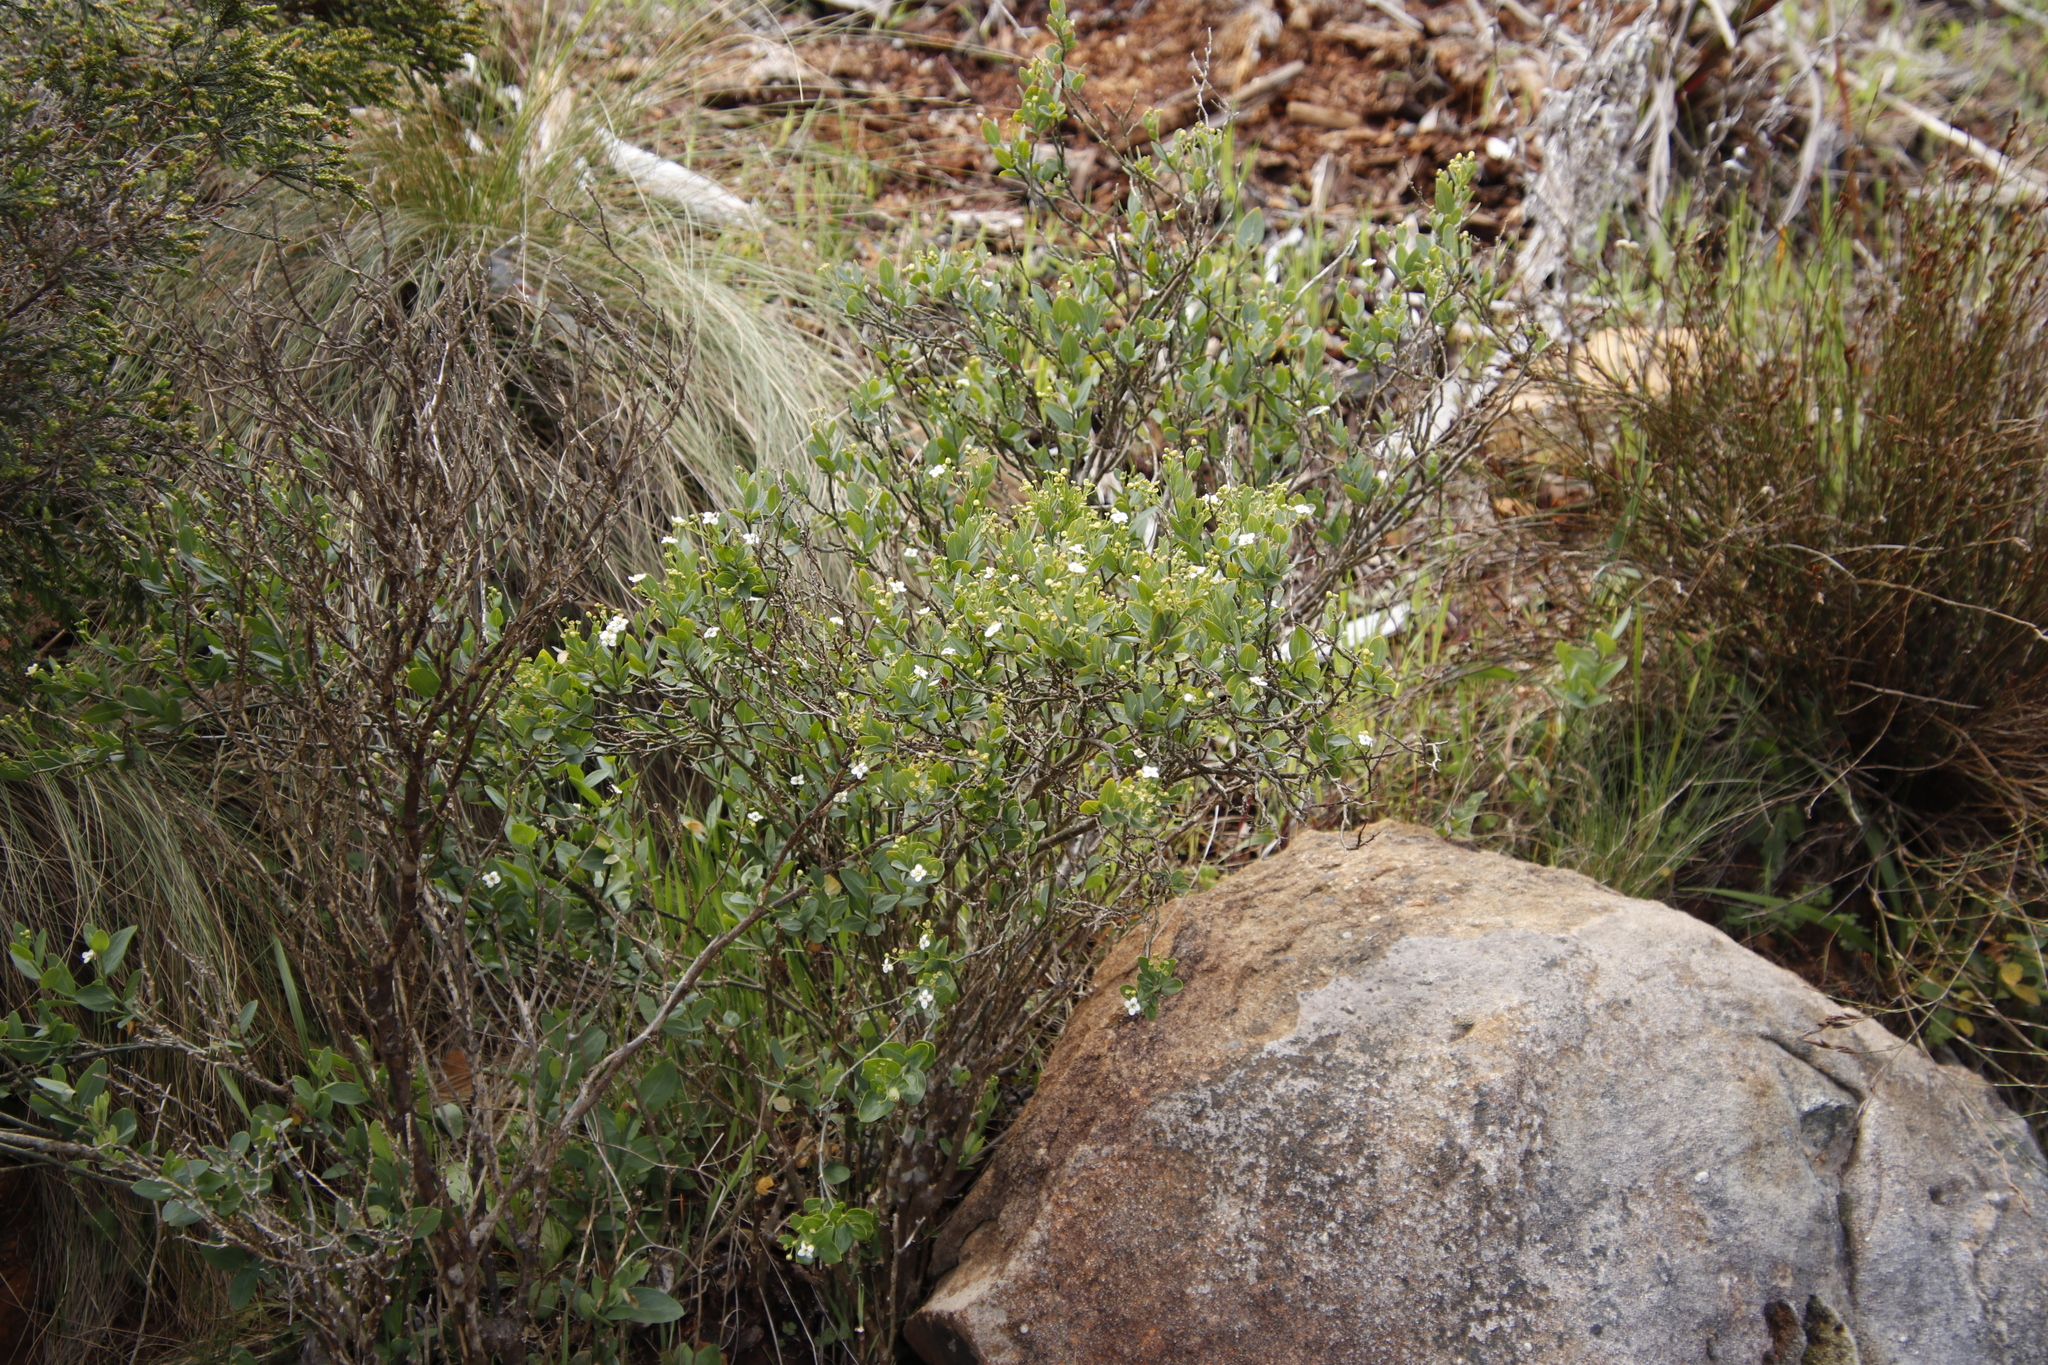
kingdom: Plantae
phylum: Tracheophyta
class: Magnoliopsida
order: Solanales
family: Montiniaceae
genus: Montinia
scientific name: Montinia caryophyllacea
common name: Wild clove-bush
